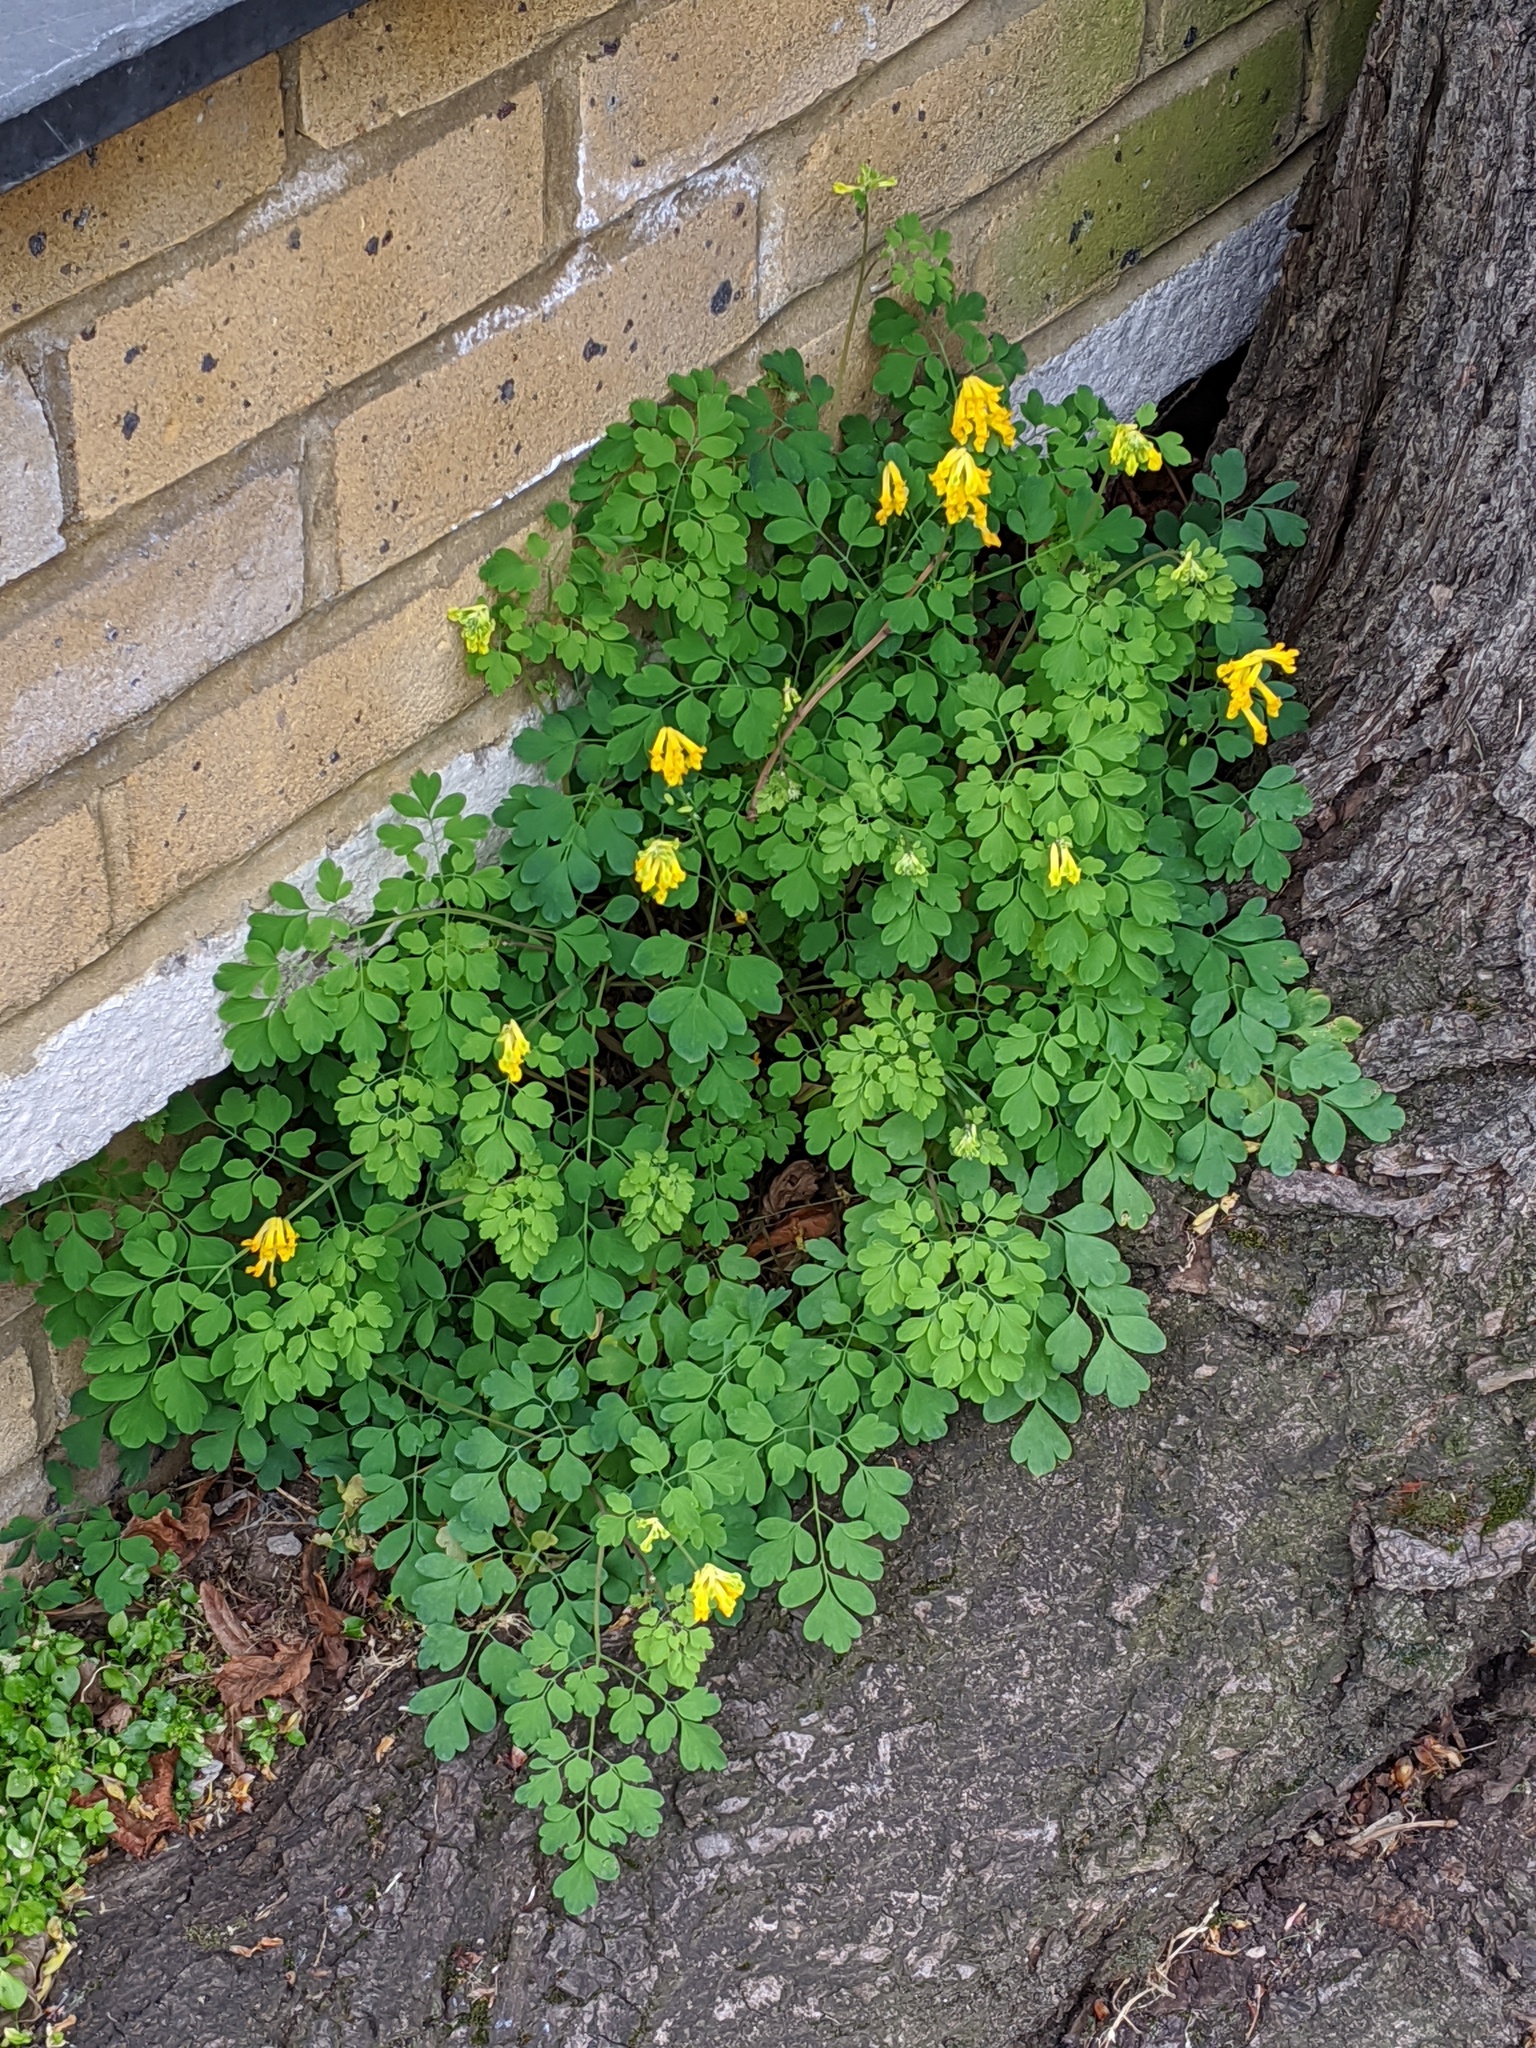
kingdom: Plantae
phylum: Tracheophyta
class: Magnoliopsida
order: Ranunculales
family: Papaveraceae
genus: Pseudofumaria
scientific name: Pseudofumaria lutea
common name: Yellow corydalis
